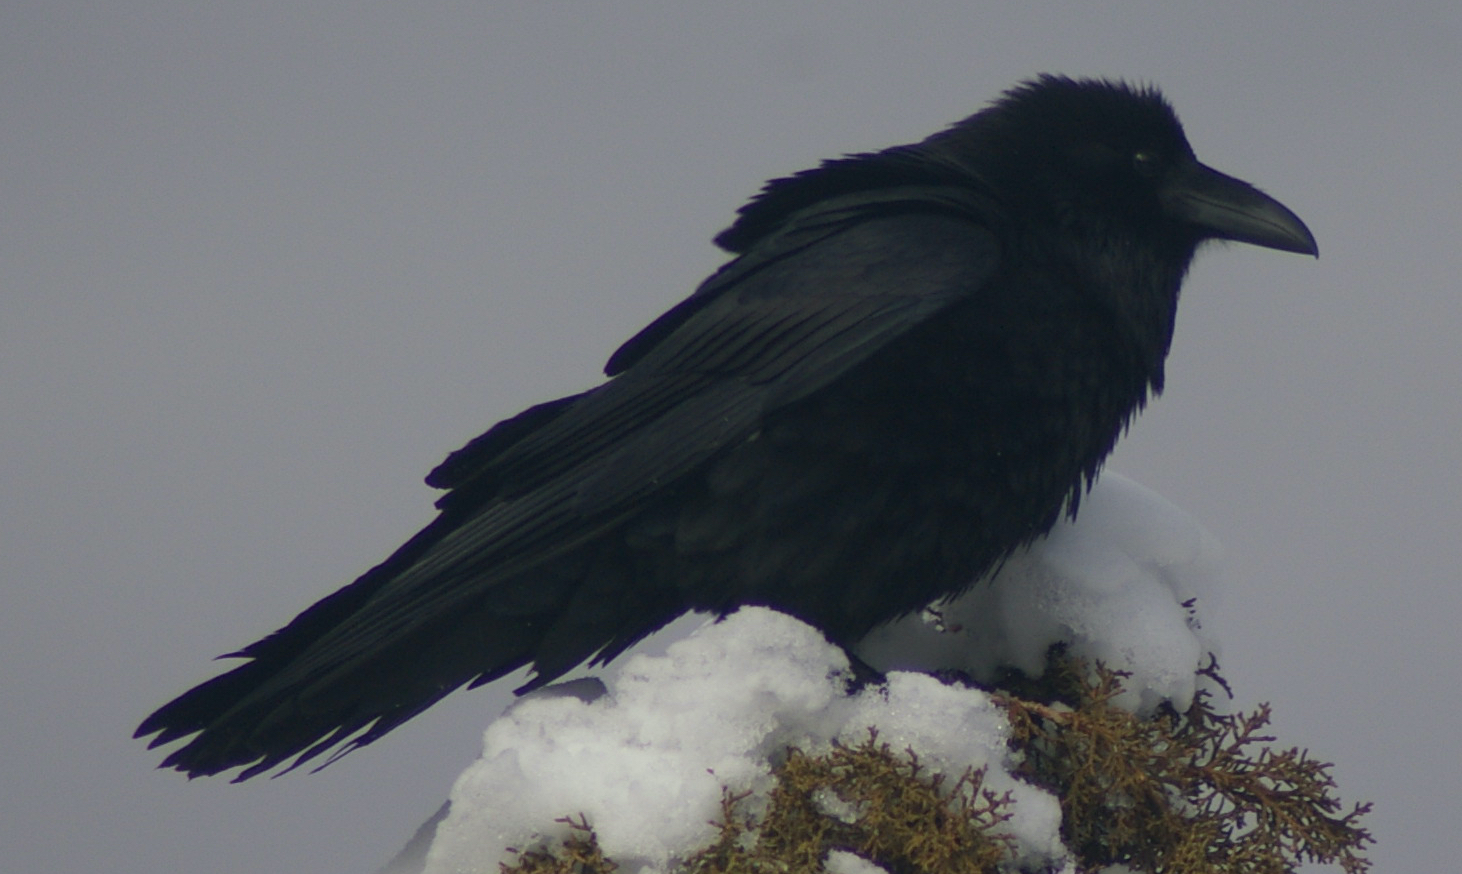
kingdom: Animalia
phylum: Chordata
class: Aves
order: Passeriformes
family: Corvidae
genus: Corvus
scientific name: Corvus corax
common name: Common raven
